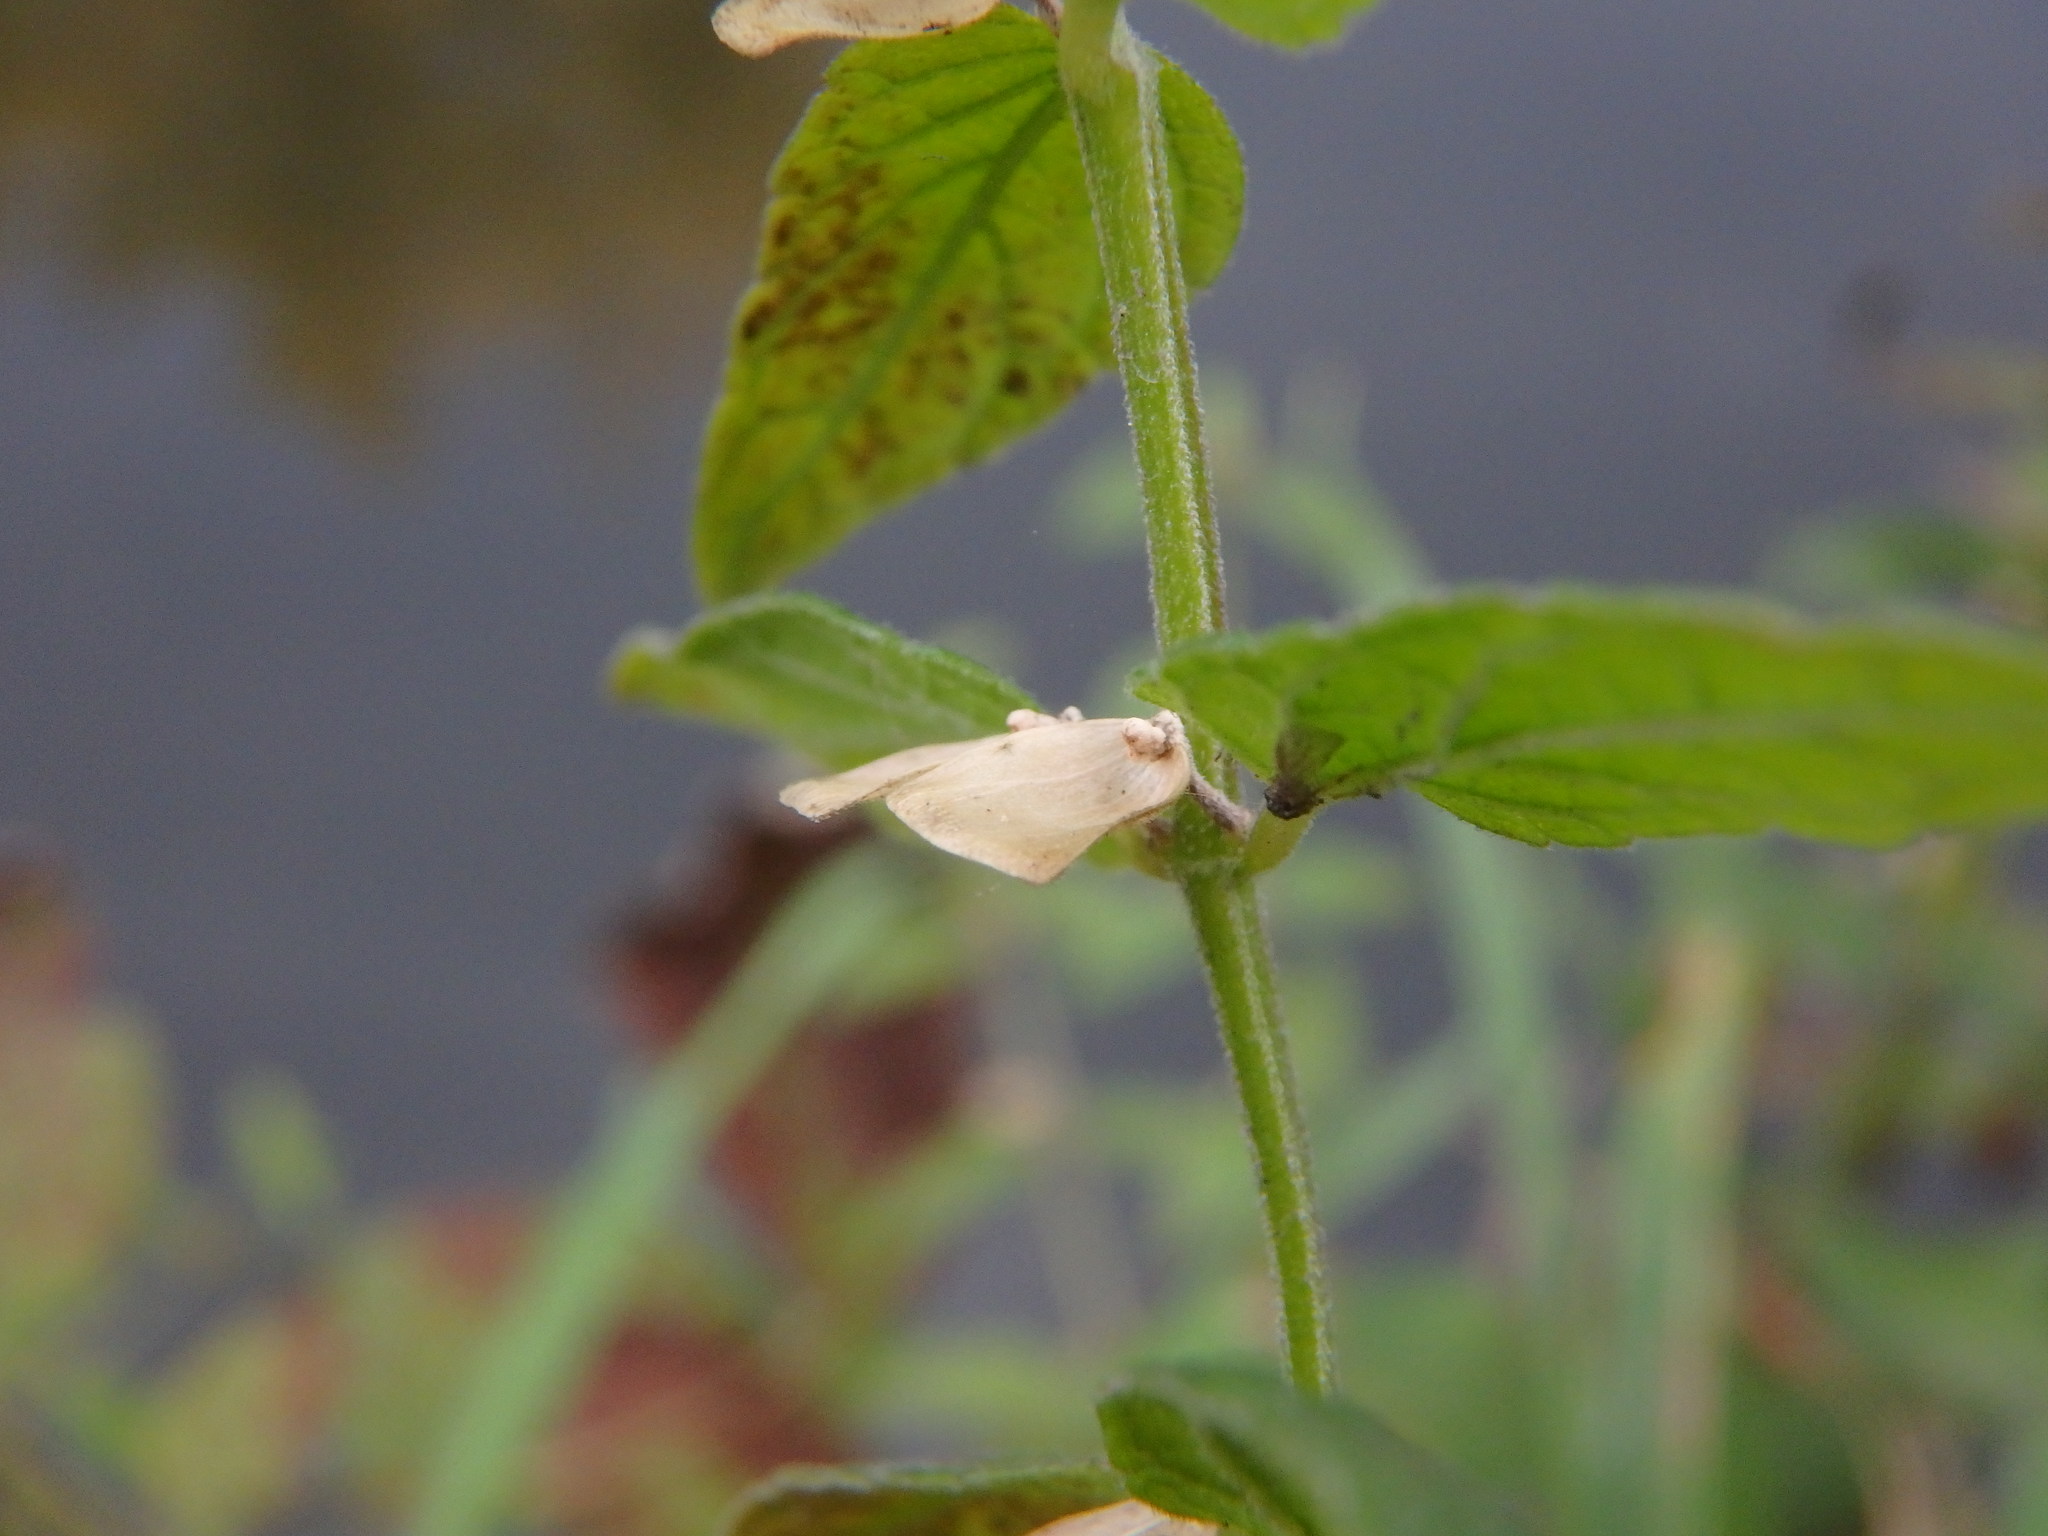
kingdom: Plantae
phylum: Tracheophyta
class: Magnoliopsida
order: Lamiales
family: Lamiaceae
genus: Scutellaria
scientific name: Scutellaria galericulata
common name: Skullcap
